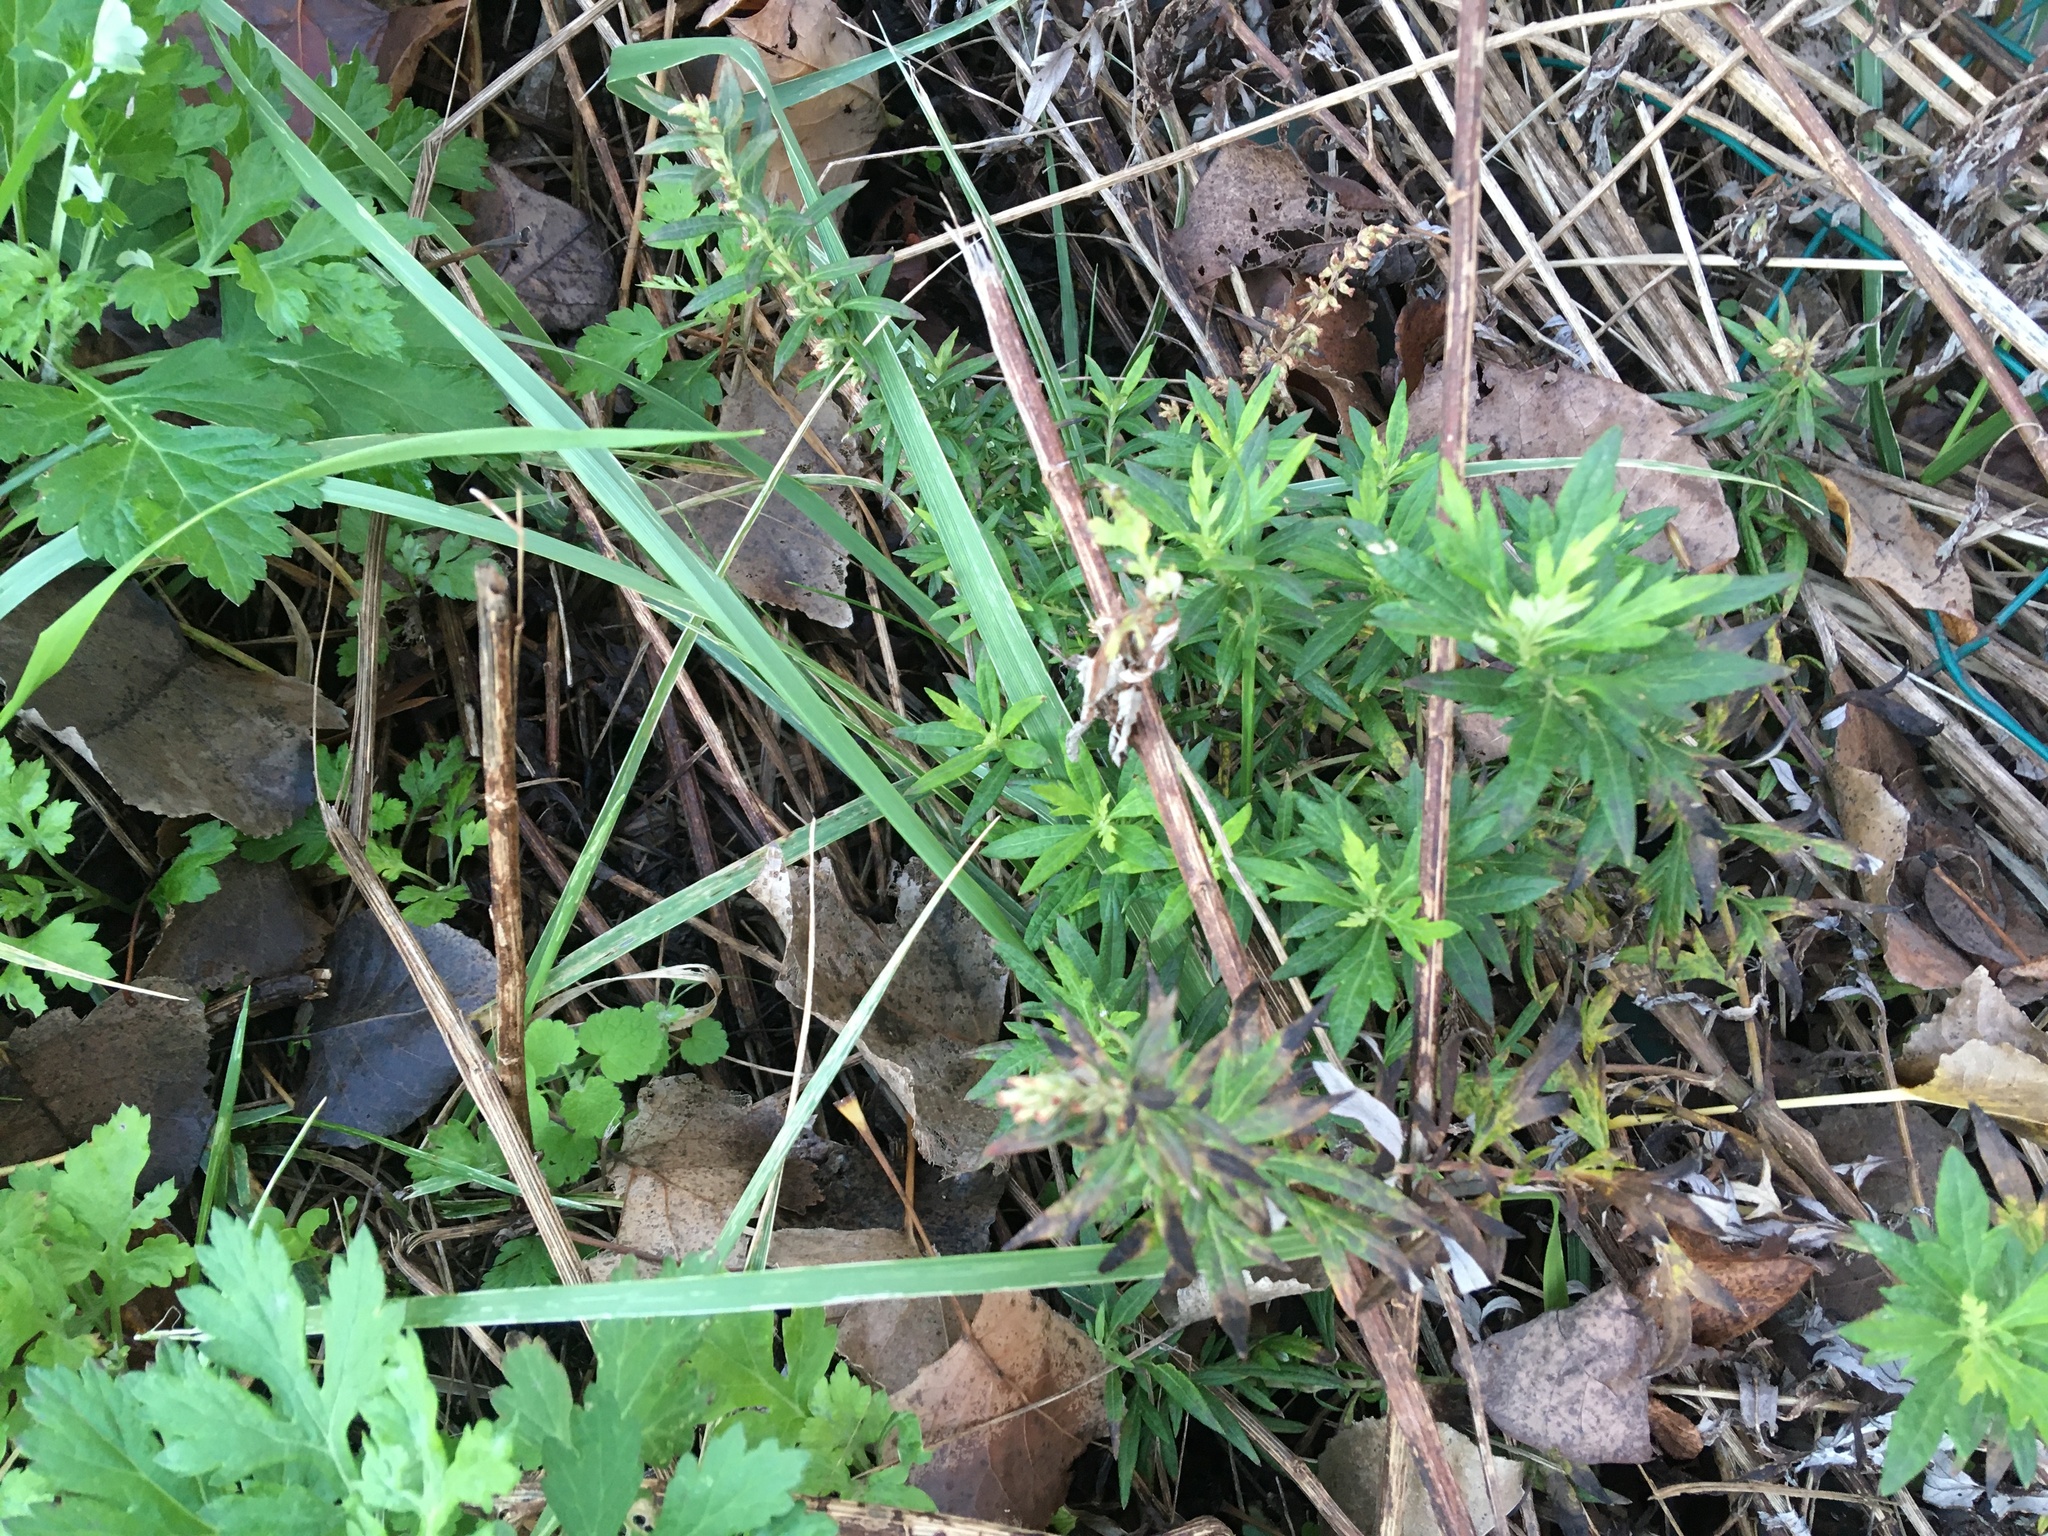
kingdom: Plantae
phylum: Tracheophyta
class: Magnoliopsida
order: Asterales
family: Asteraceae
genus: Artemisia
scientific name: Artemisia vulgaris
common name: Mugwort
